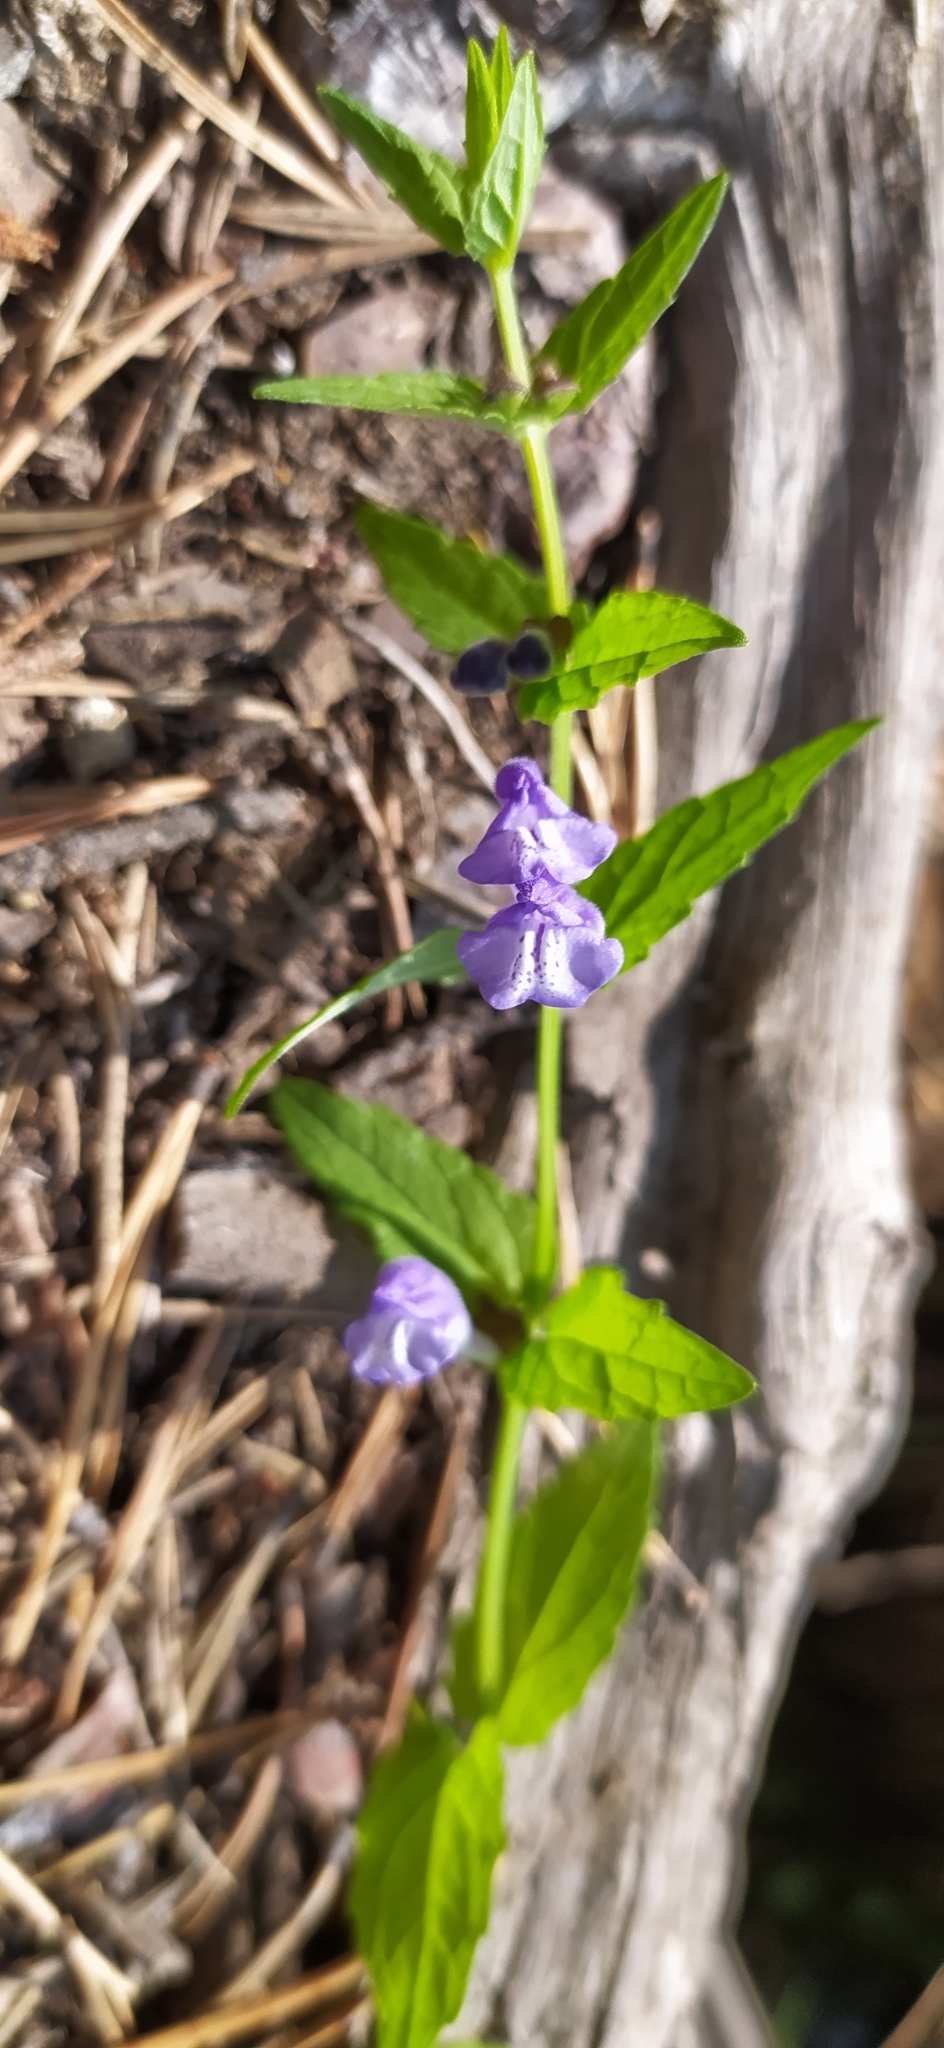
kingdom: Plantae
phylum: Tracheophyta
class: Magnoliopsida
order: Lamiales
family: Lamiaceae
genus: Scutellaria
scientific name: Scutellaria galericulata
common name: Skullcap
